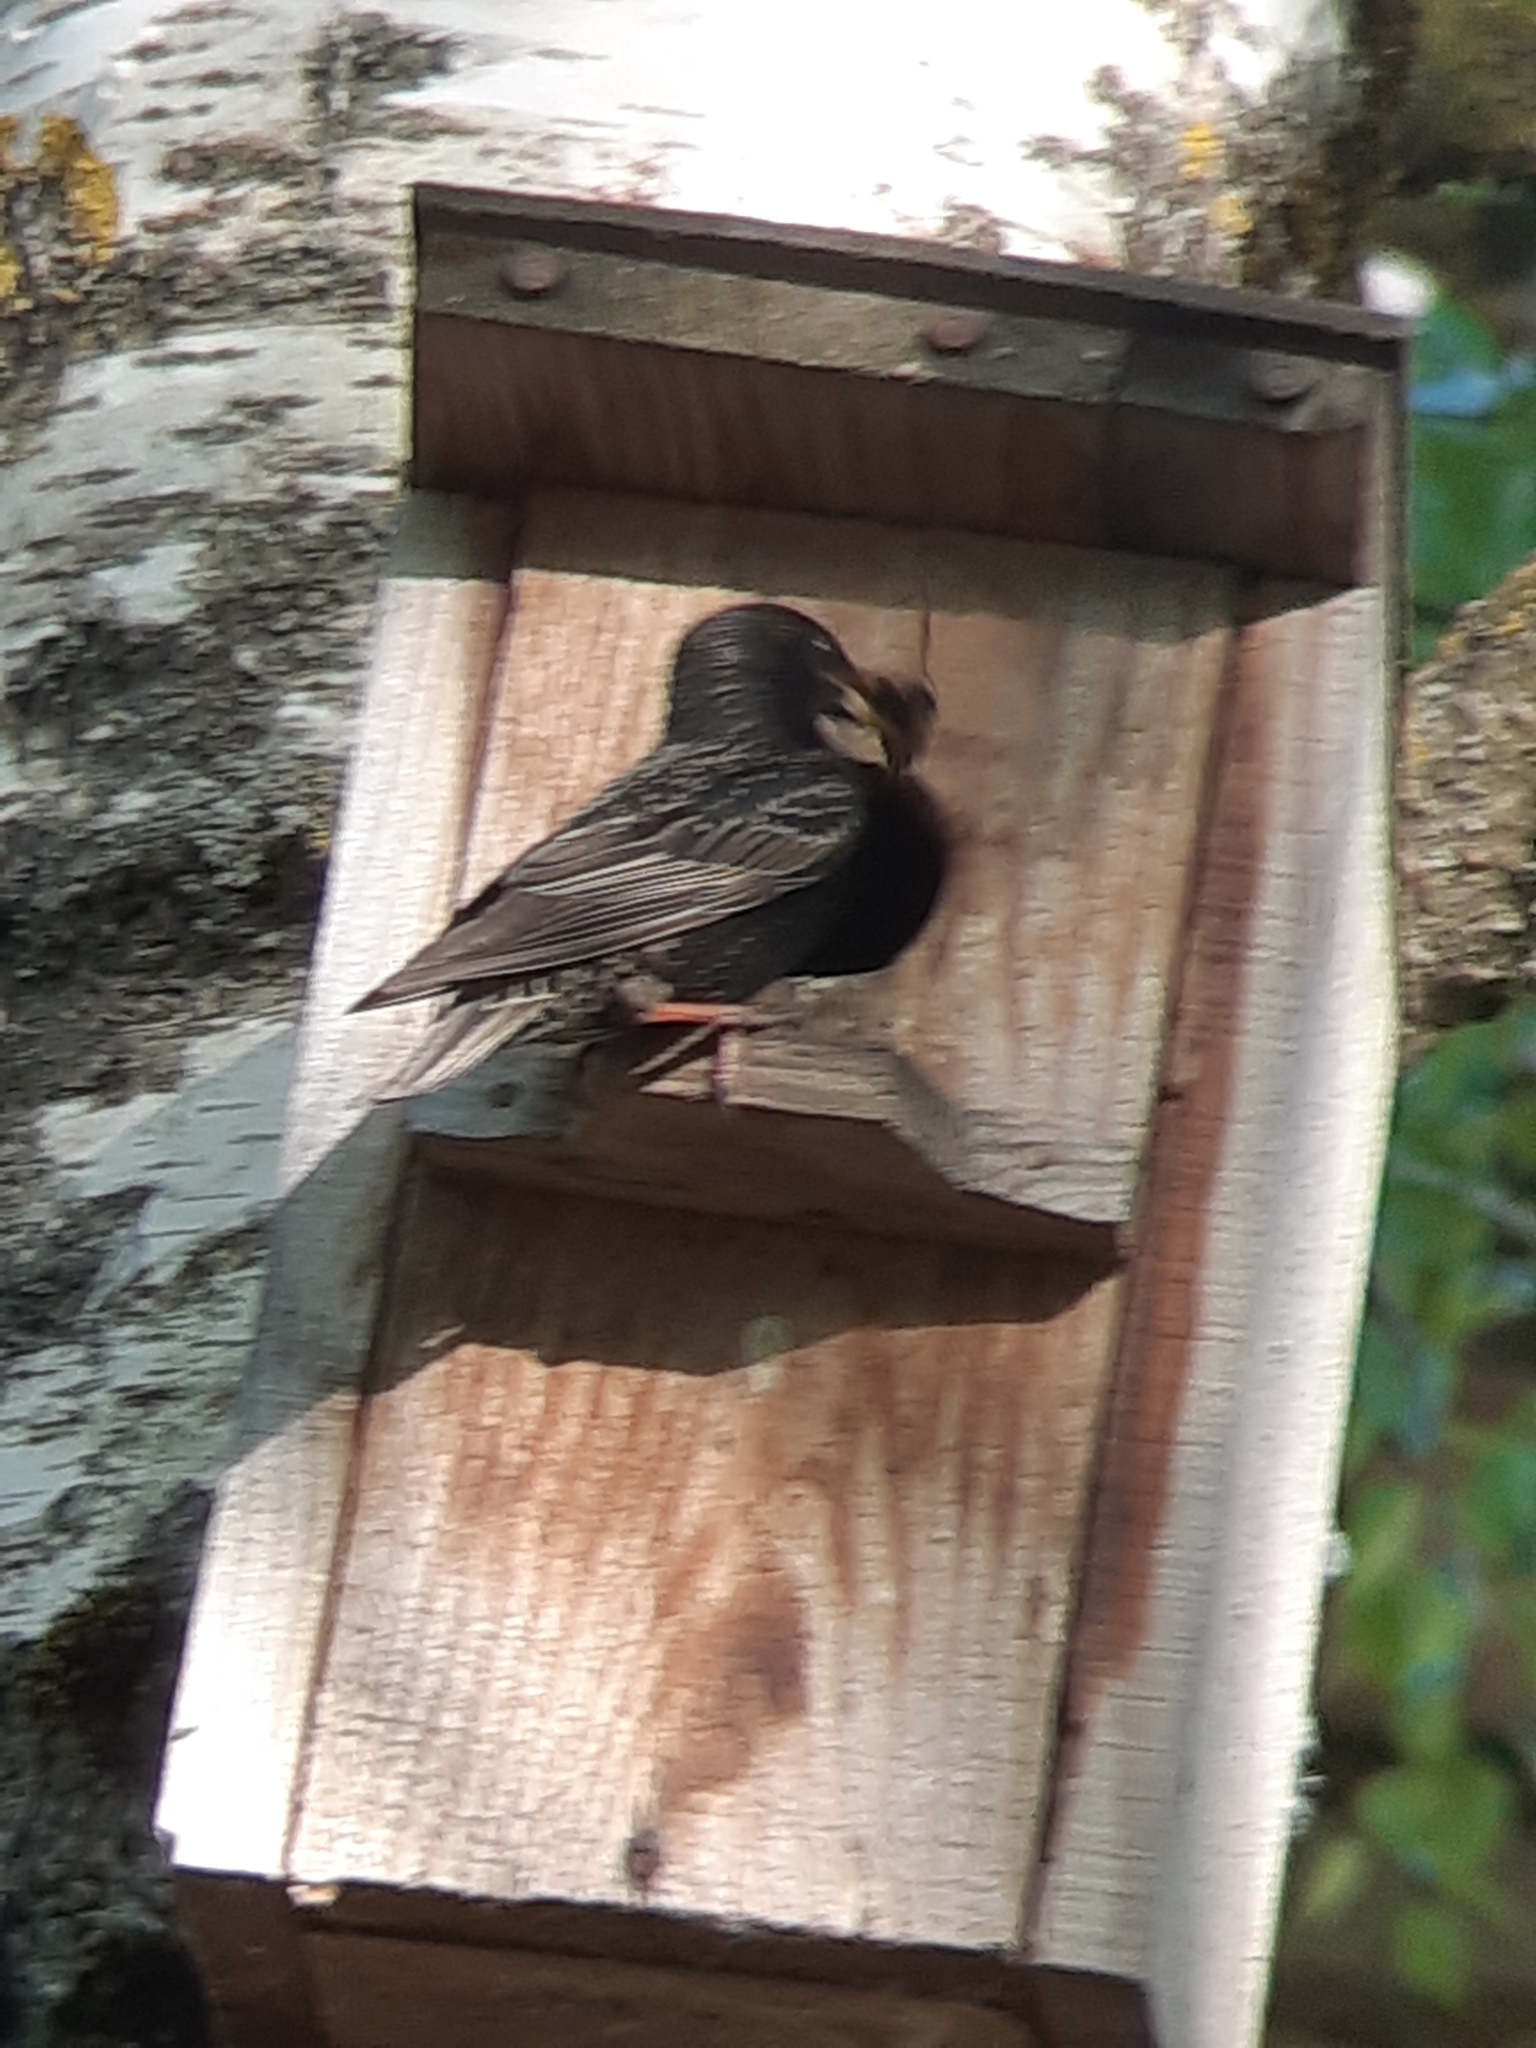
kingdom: Animalia
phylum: Chordata
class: Aves
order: Passeriformes
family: Sturnidae
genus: Sturnus
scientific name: Sturnus vulgaris
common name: Common starling
